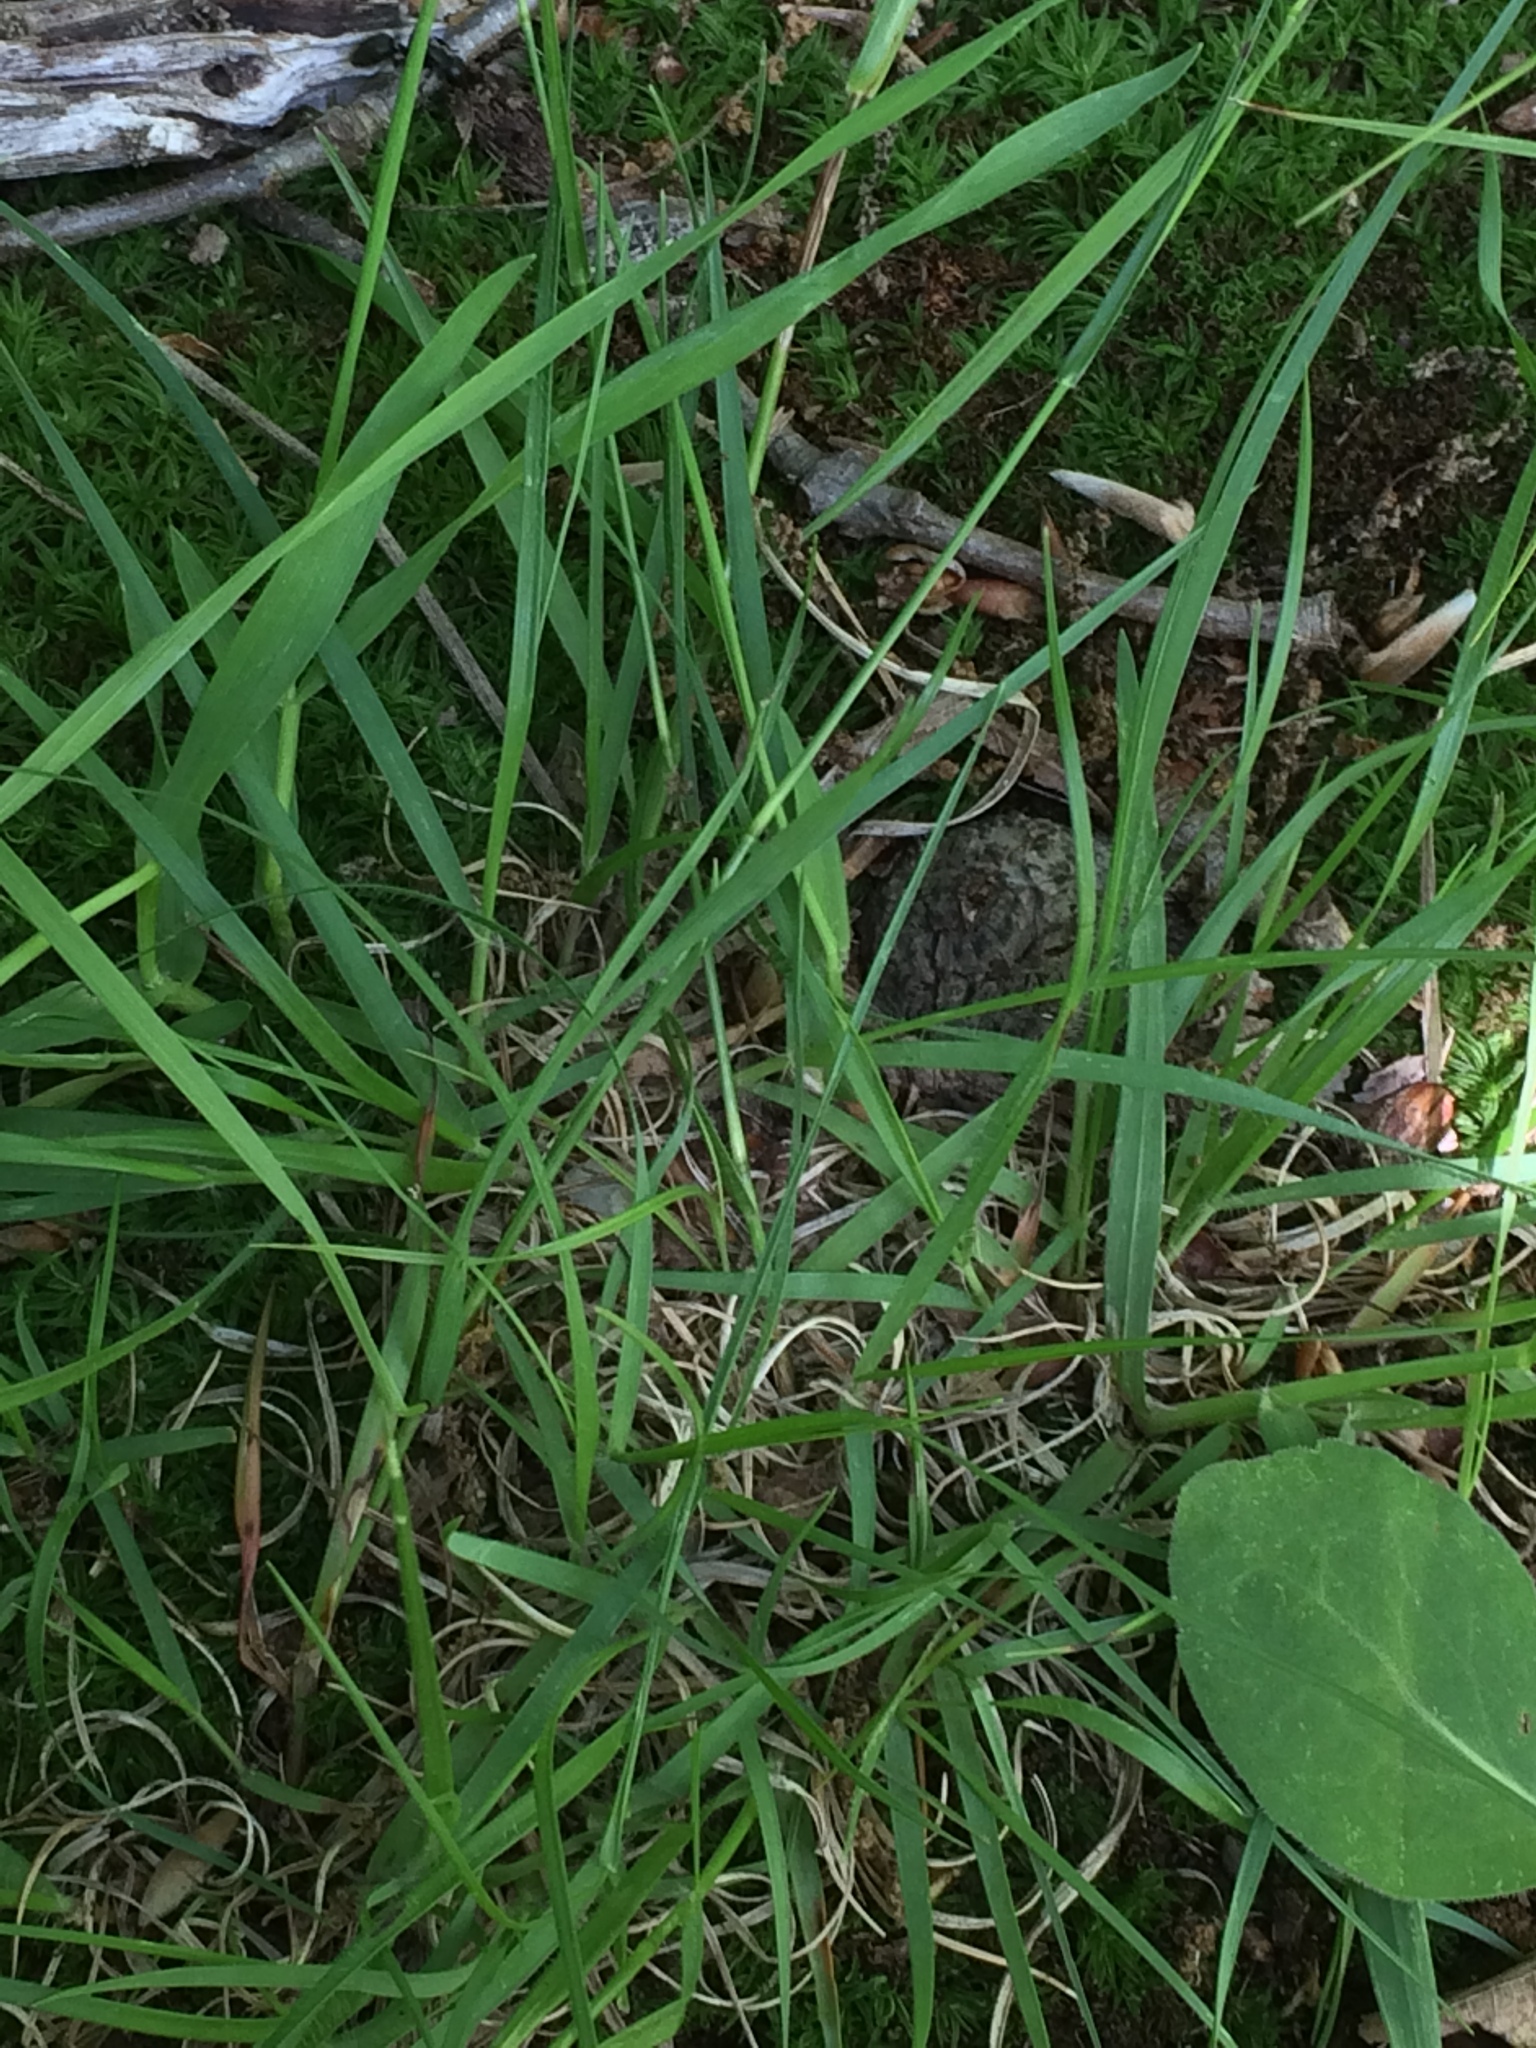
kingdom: Plantae
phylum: Tracheophyta
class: Liliopsida
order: Poales
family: Poaceae
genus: Danthonia
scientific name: Danthonia spicata
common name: Common wild oatgrass
